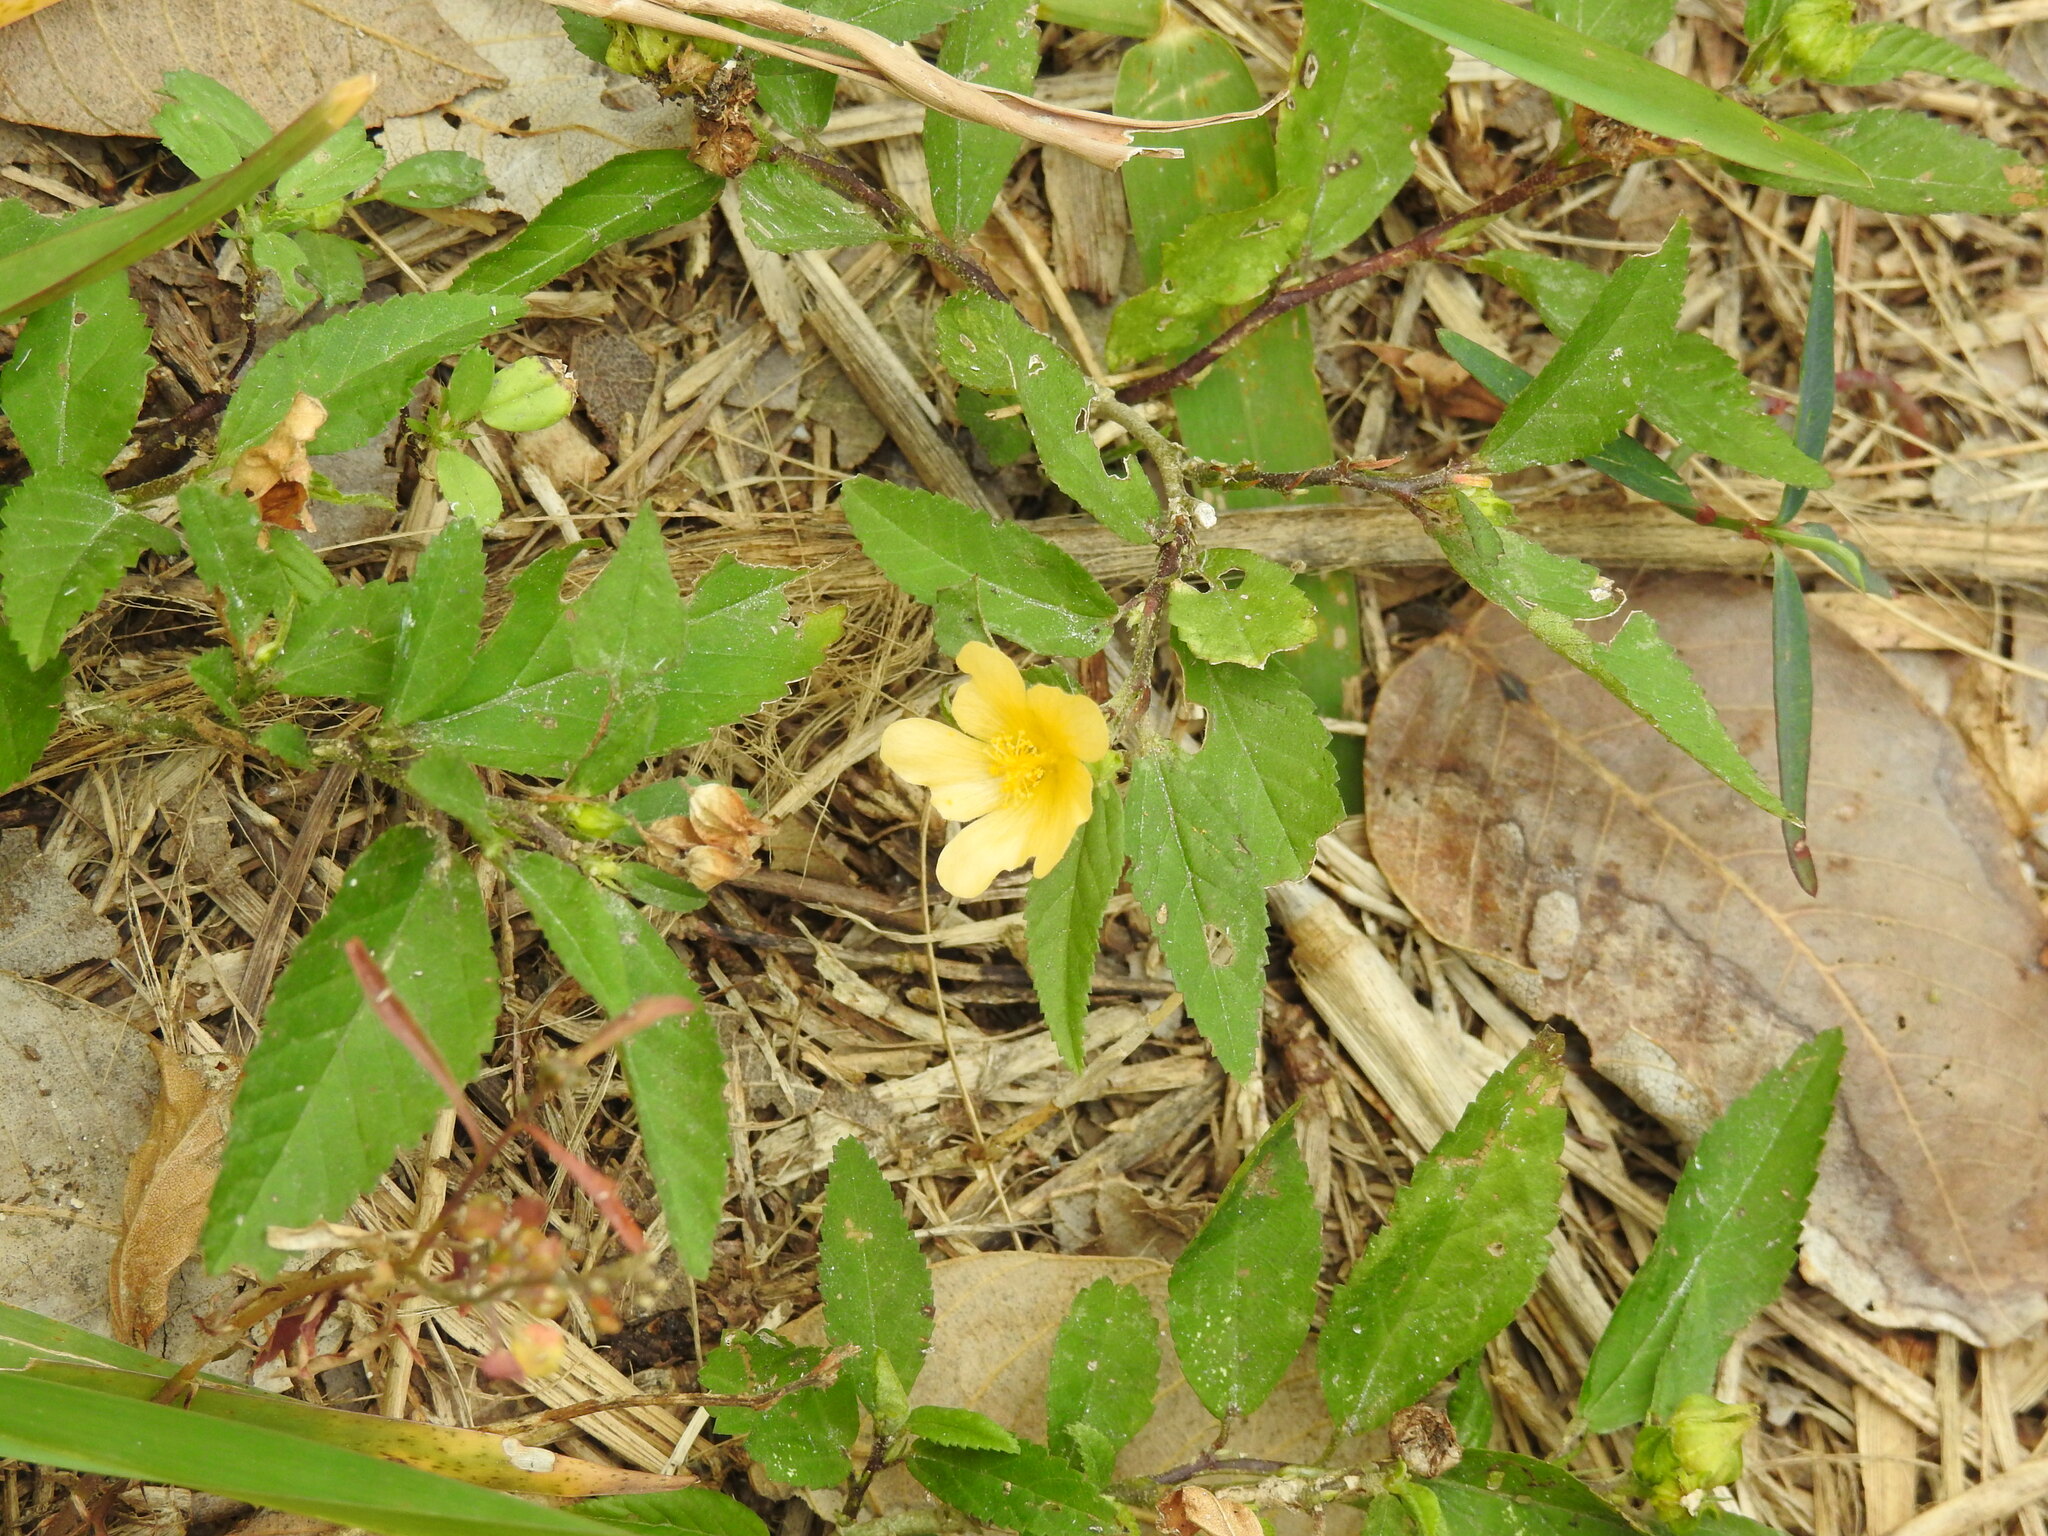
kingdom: Plantae
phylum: Tracheophyta
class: Magnoliopsida
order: Malvales
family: Malvaceae
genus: Sida
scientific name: Sida ulmifolia
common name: Broom weed
